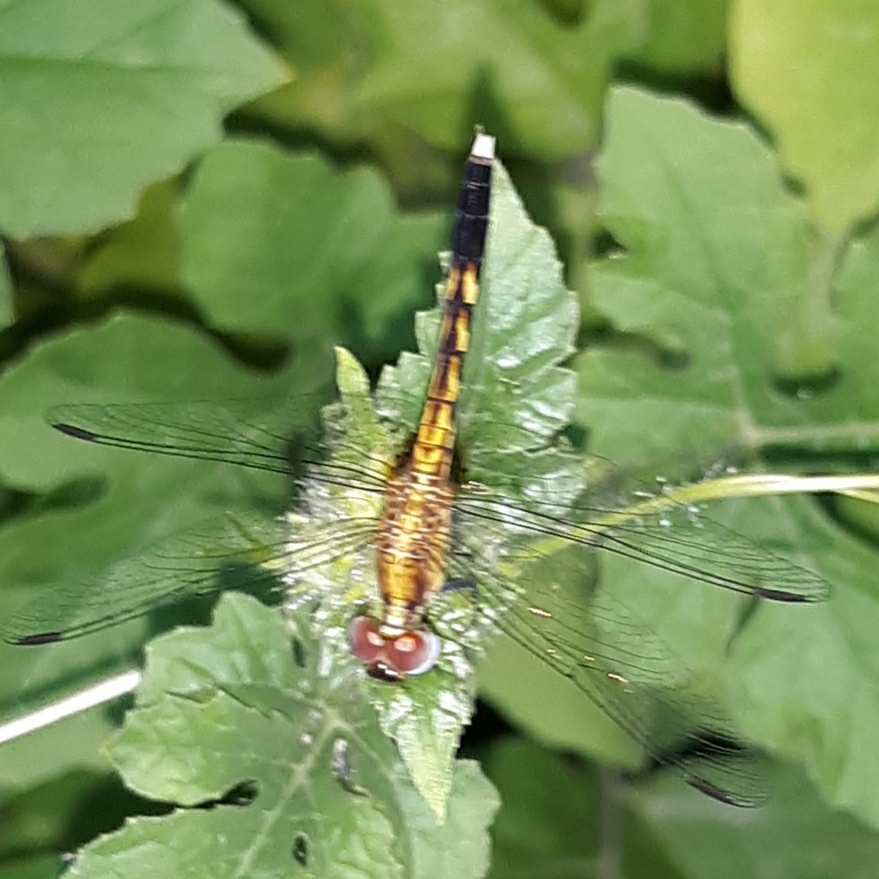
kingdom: Animalia
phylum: Arthropoda
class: Insecta
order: Odonata
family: Libellulidae
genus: Erythrodiplax
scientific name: Erythrodiplax minuscula
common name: Little blue dragonlet
